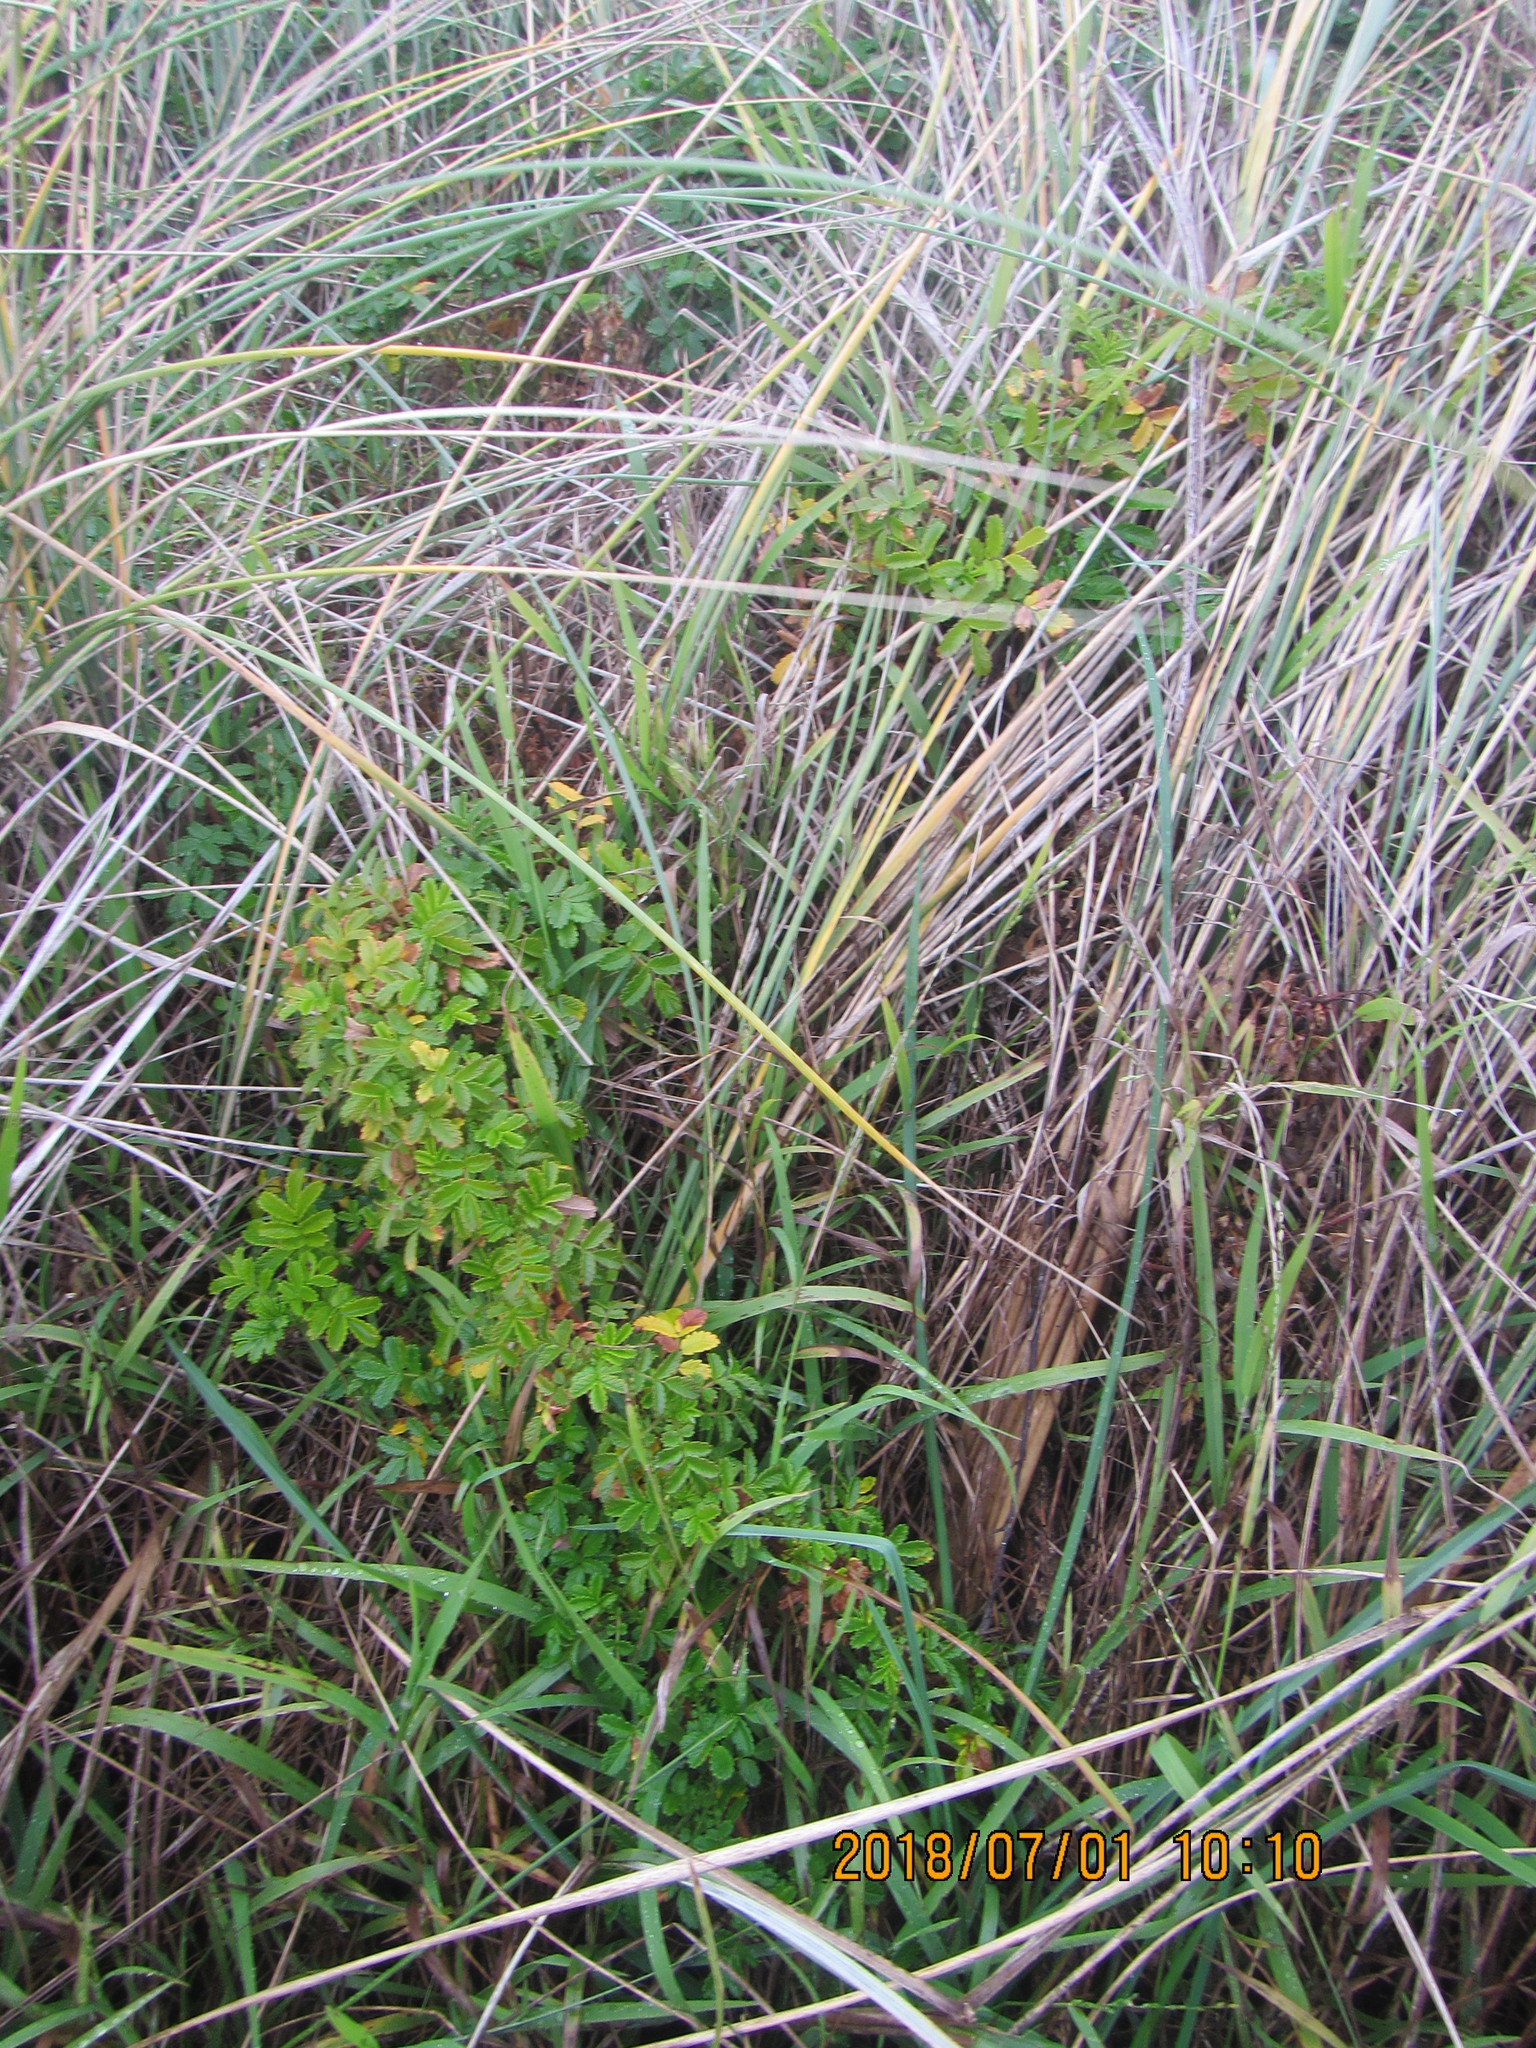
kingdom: Plantae
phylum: Tracheophyta
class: Magnoliopsida
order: Rosales
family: Rosaceae
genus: Acaena
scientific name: Acaena novae-zelandiae
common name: Pirri-pirri-bur
